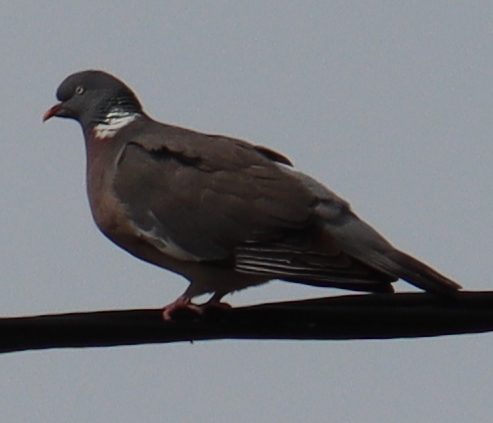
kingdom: Animalia
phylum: Chordata
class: Aves
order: Columbiformes
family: Columbidae
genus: Columba
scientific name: Columba palumbus
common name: Common wood pigeon
